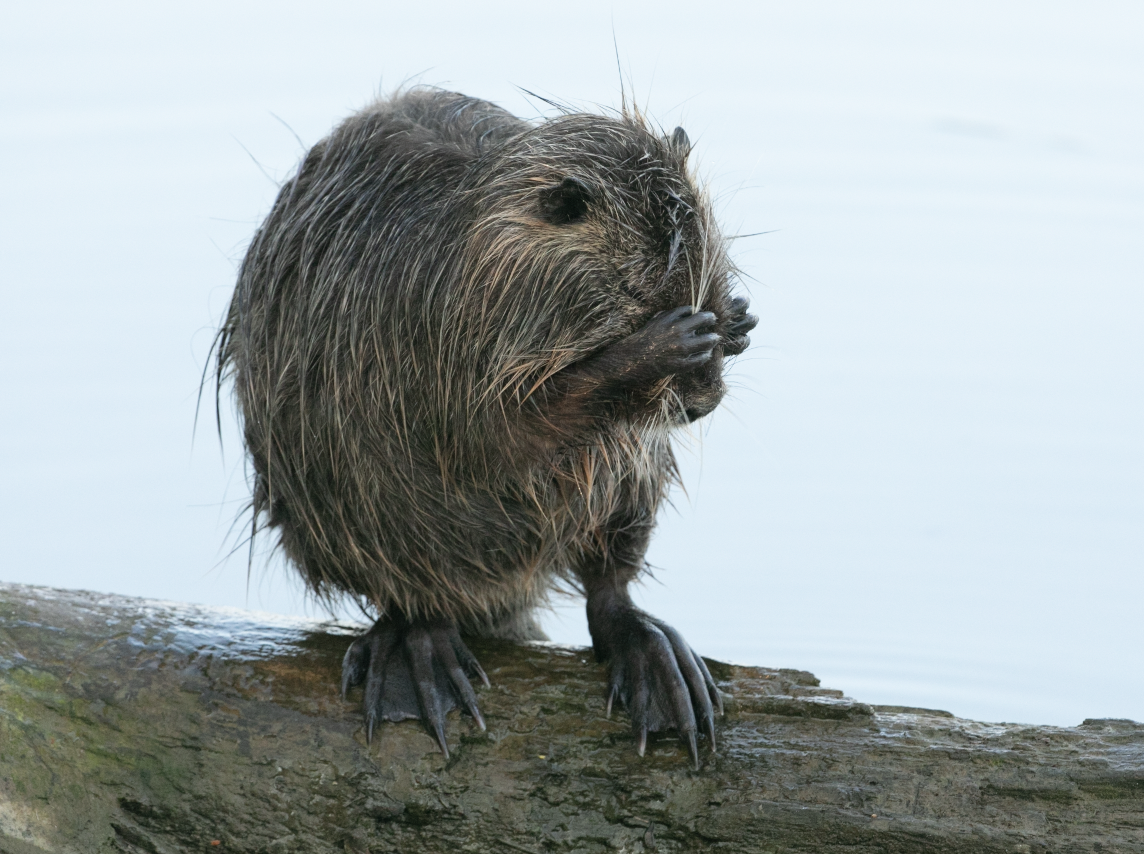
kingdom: Animalia
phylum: Chordata
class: Mammalia
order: Rodentia
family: Myocastoridae
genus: Myocastor
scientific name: Myocastor coypus
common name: Coypu
